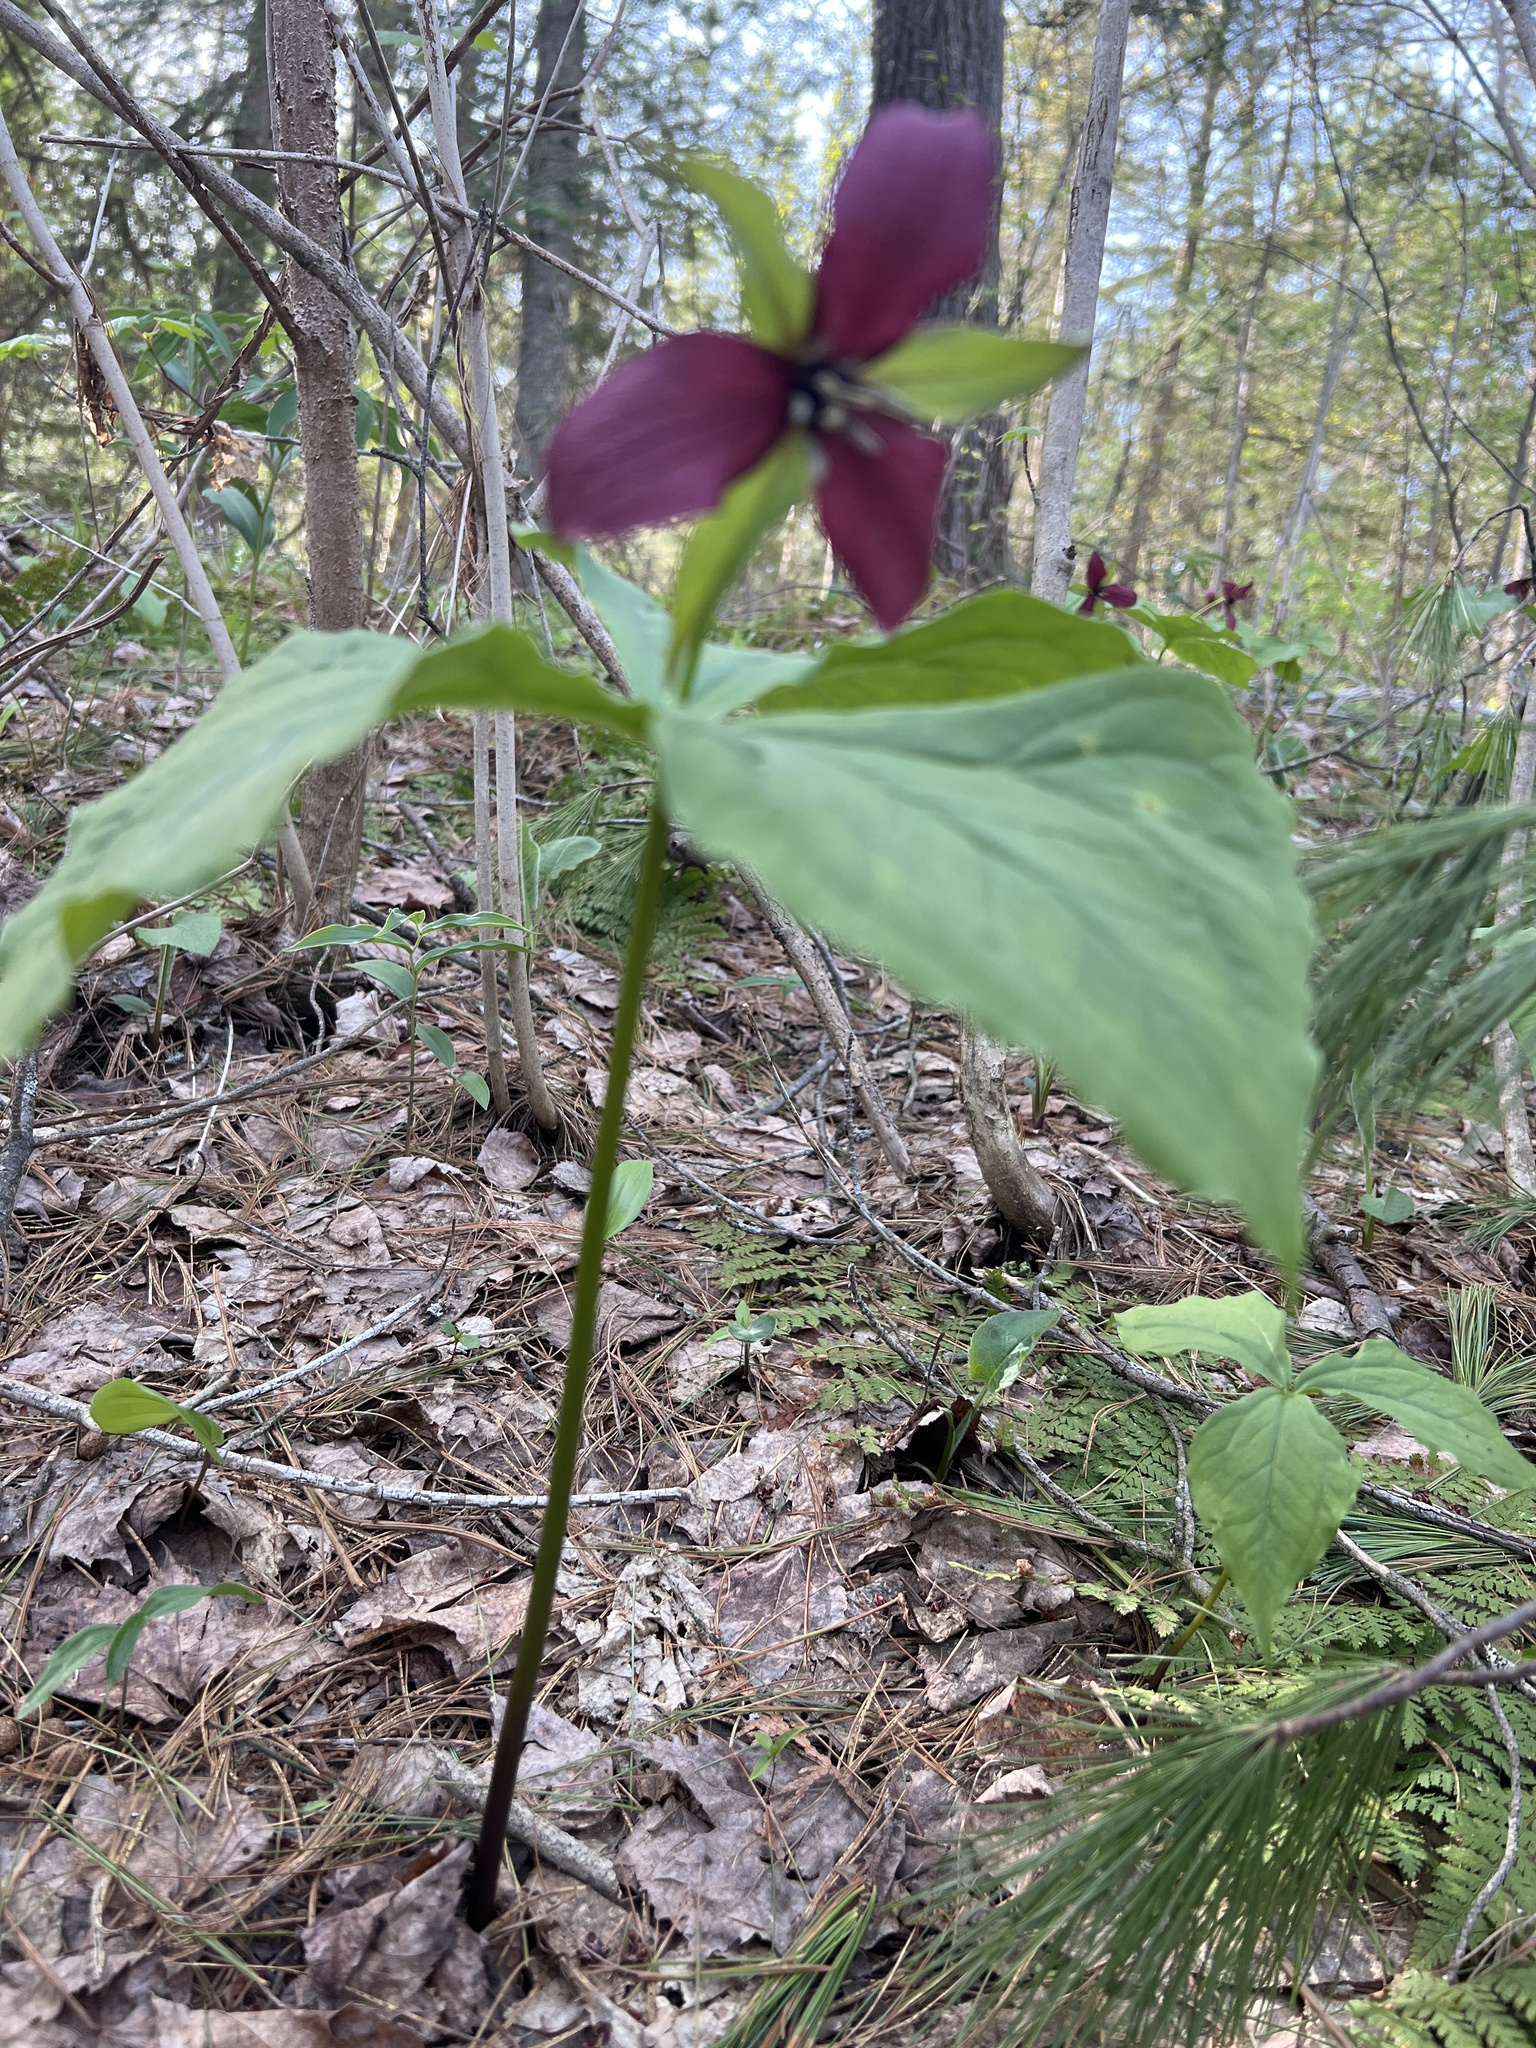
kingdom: Plantae
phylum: Tracheophyta
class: Liliopsida
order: Liliales
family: Melanthiaceae
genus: Trillium
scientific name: Trillium erectum
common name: Purple trillium
